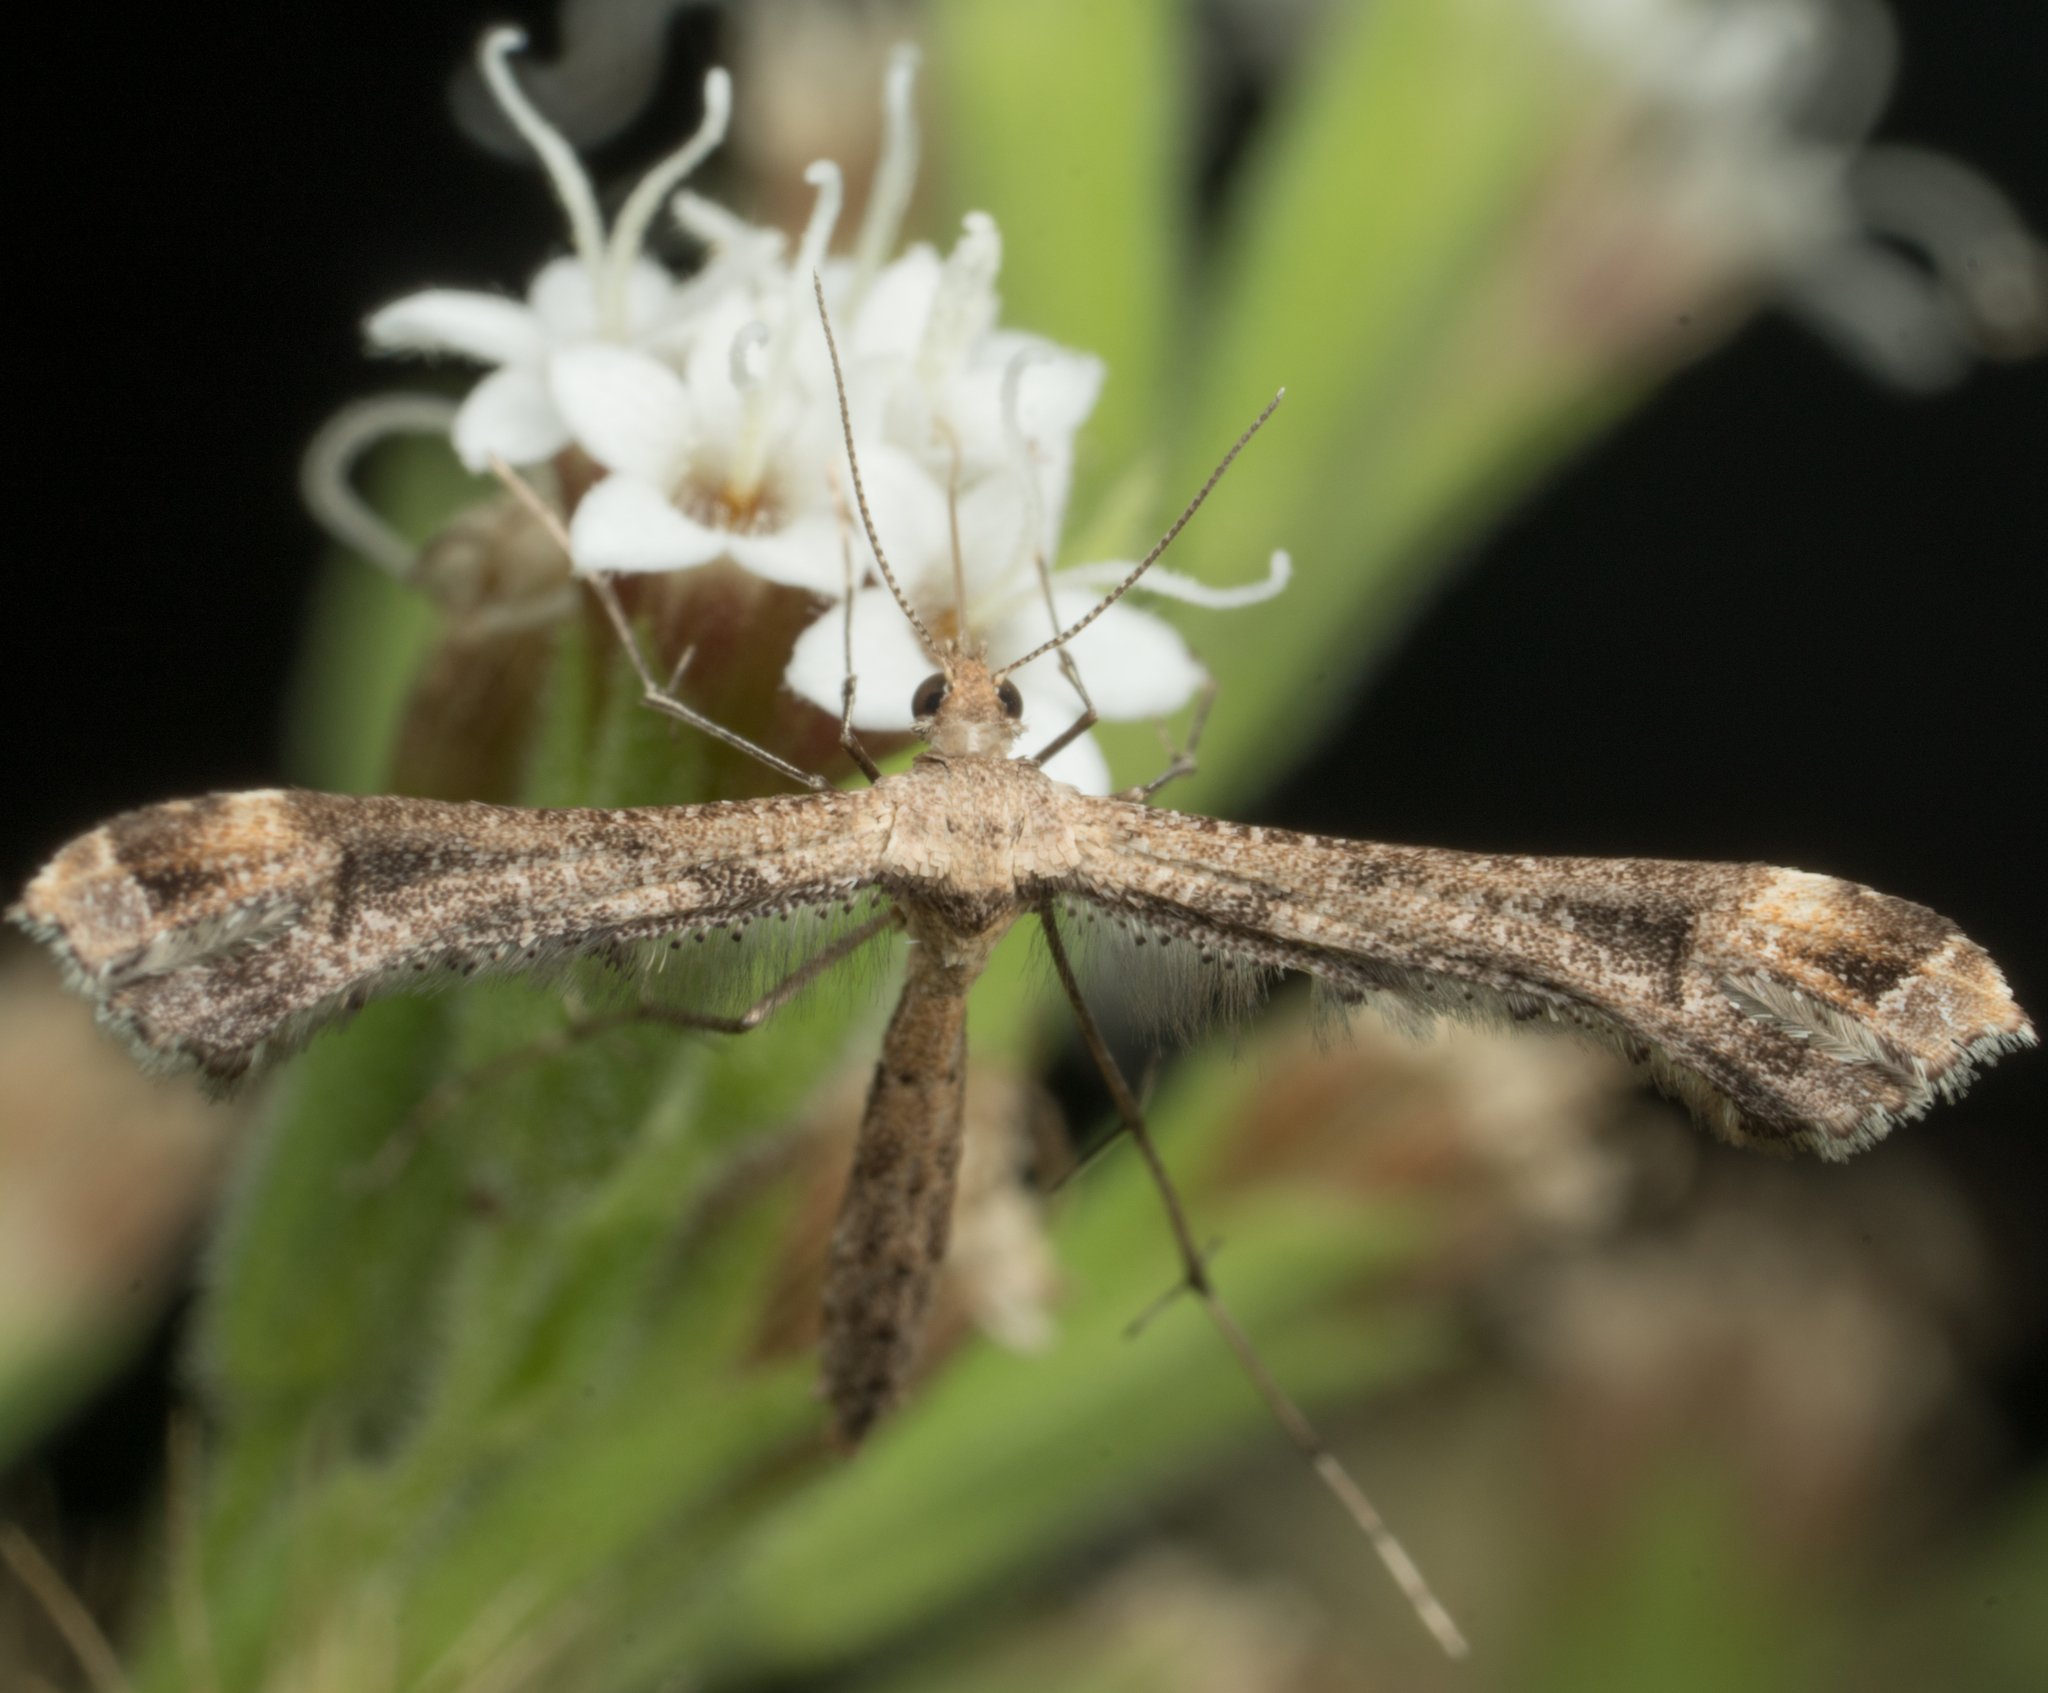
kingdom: Animalia
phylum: Arthropoda
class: Insecta
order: Lepidoptera
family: Pterophoridae
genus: Stenoptilodes
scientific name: Stenoptilodes antirrhina
